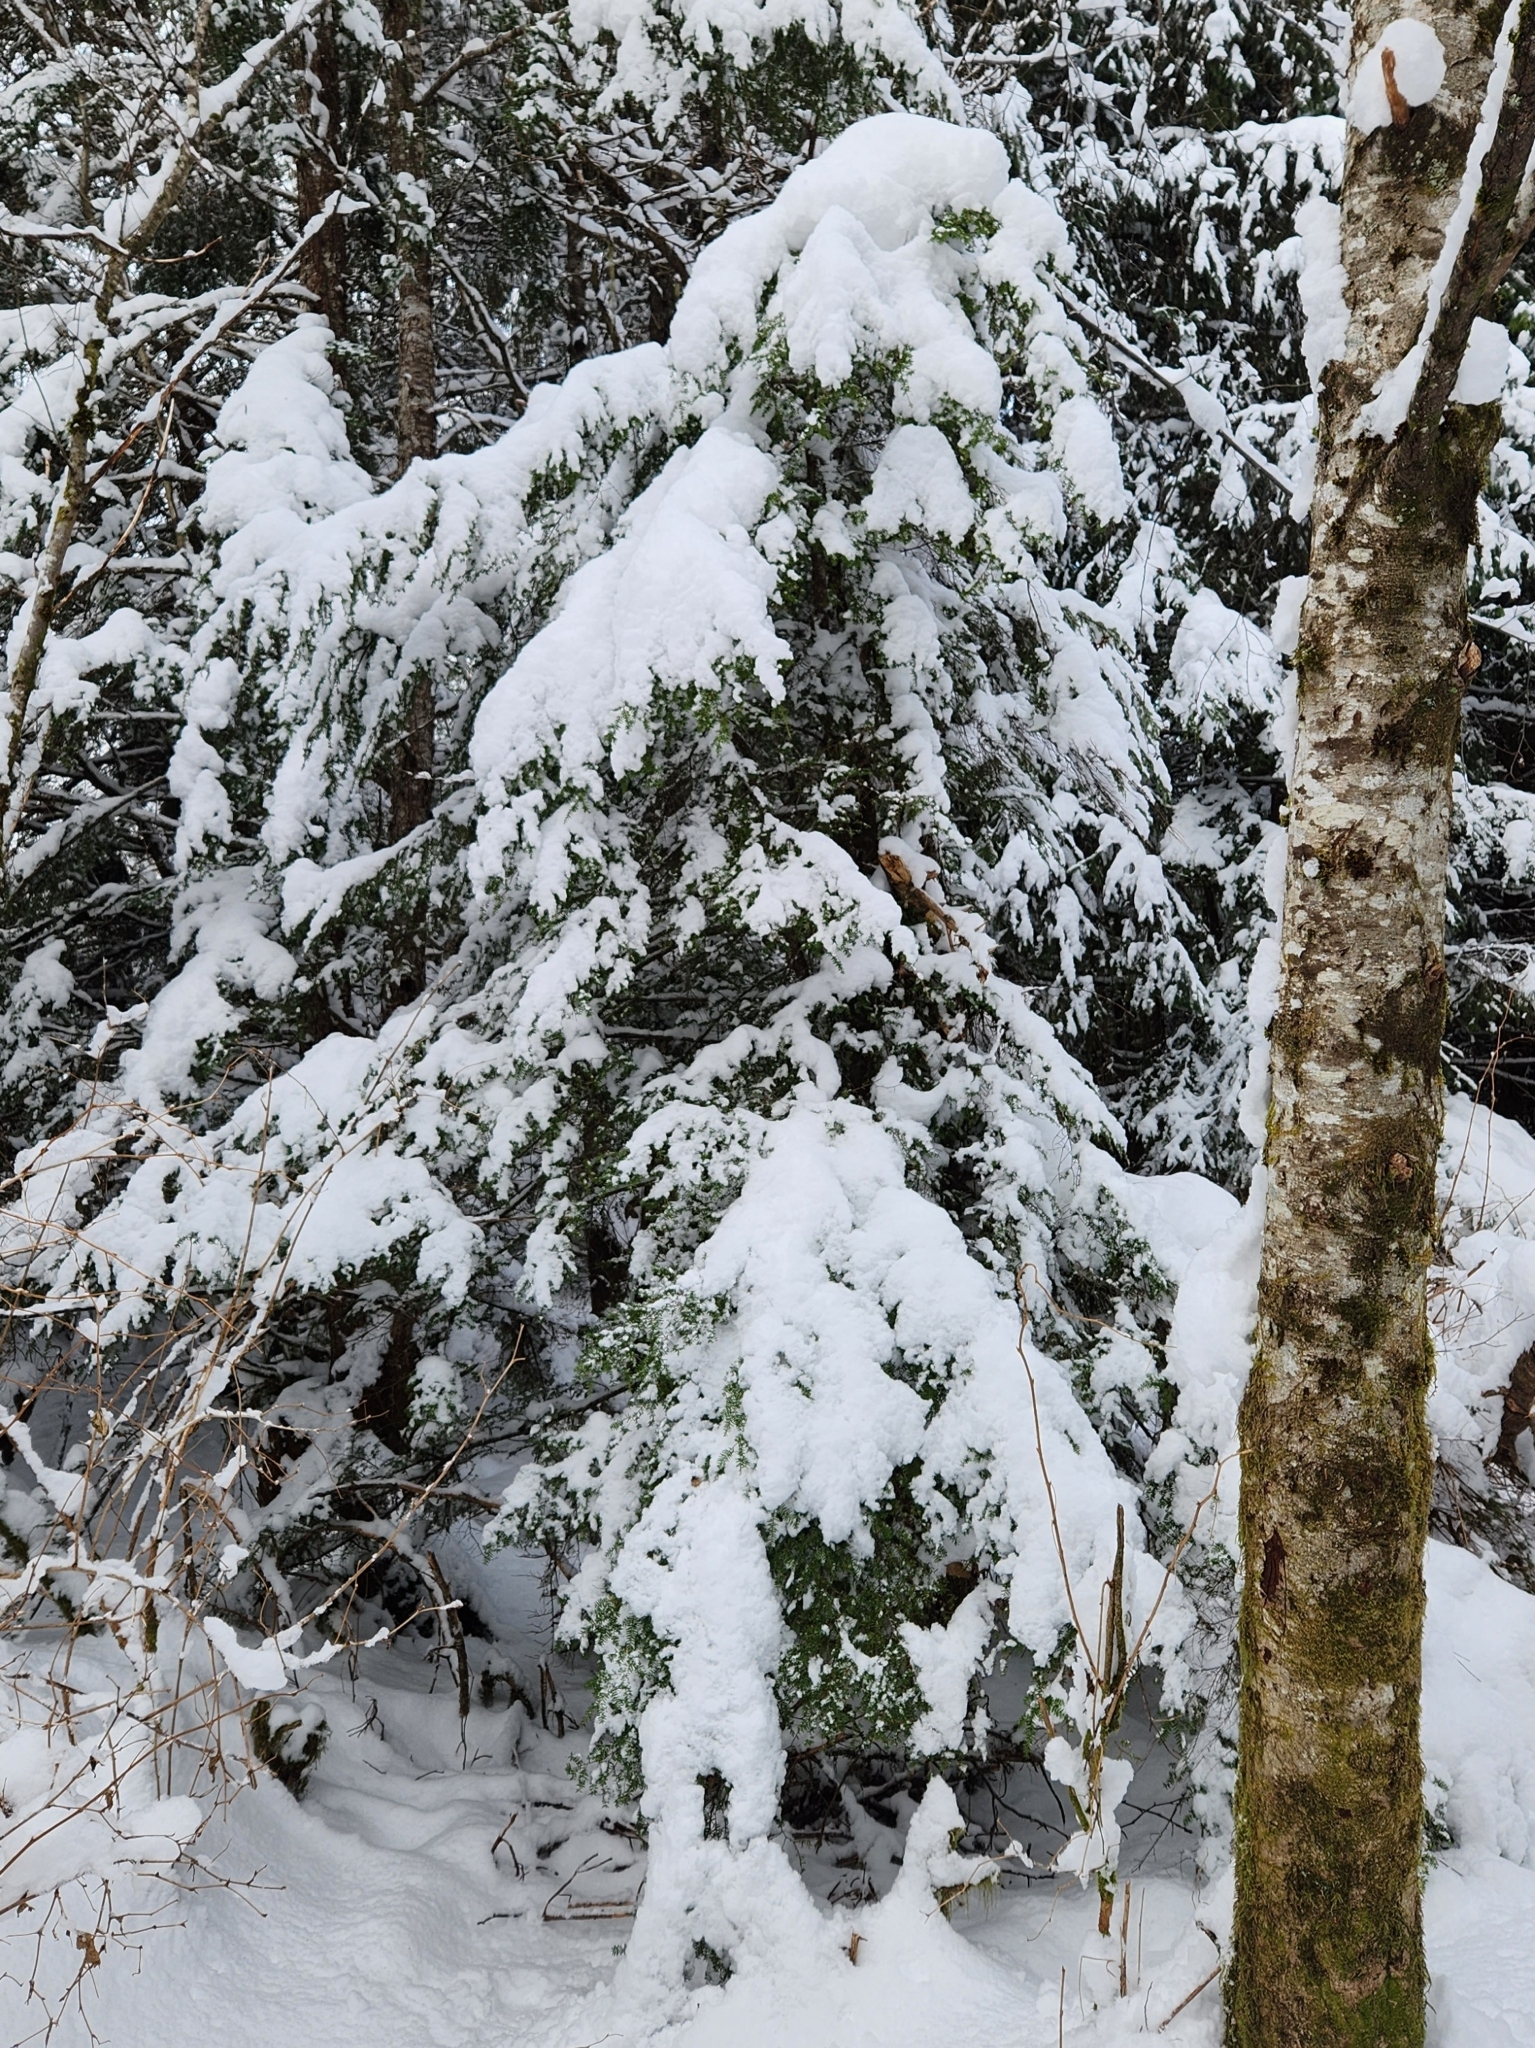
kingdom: Plantae
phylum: Tracheophyta
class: Pinopsida
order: Pinales
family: Pinaceae
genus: Tsuga
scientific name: Tsuga heterophylla
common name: Western hemlock
